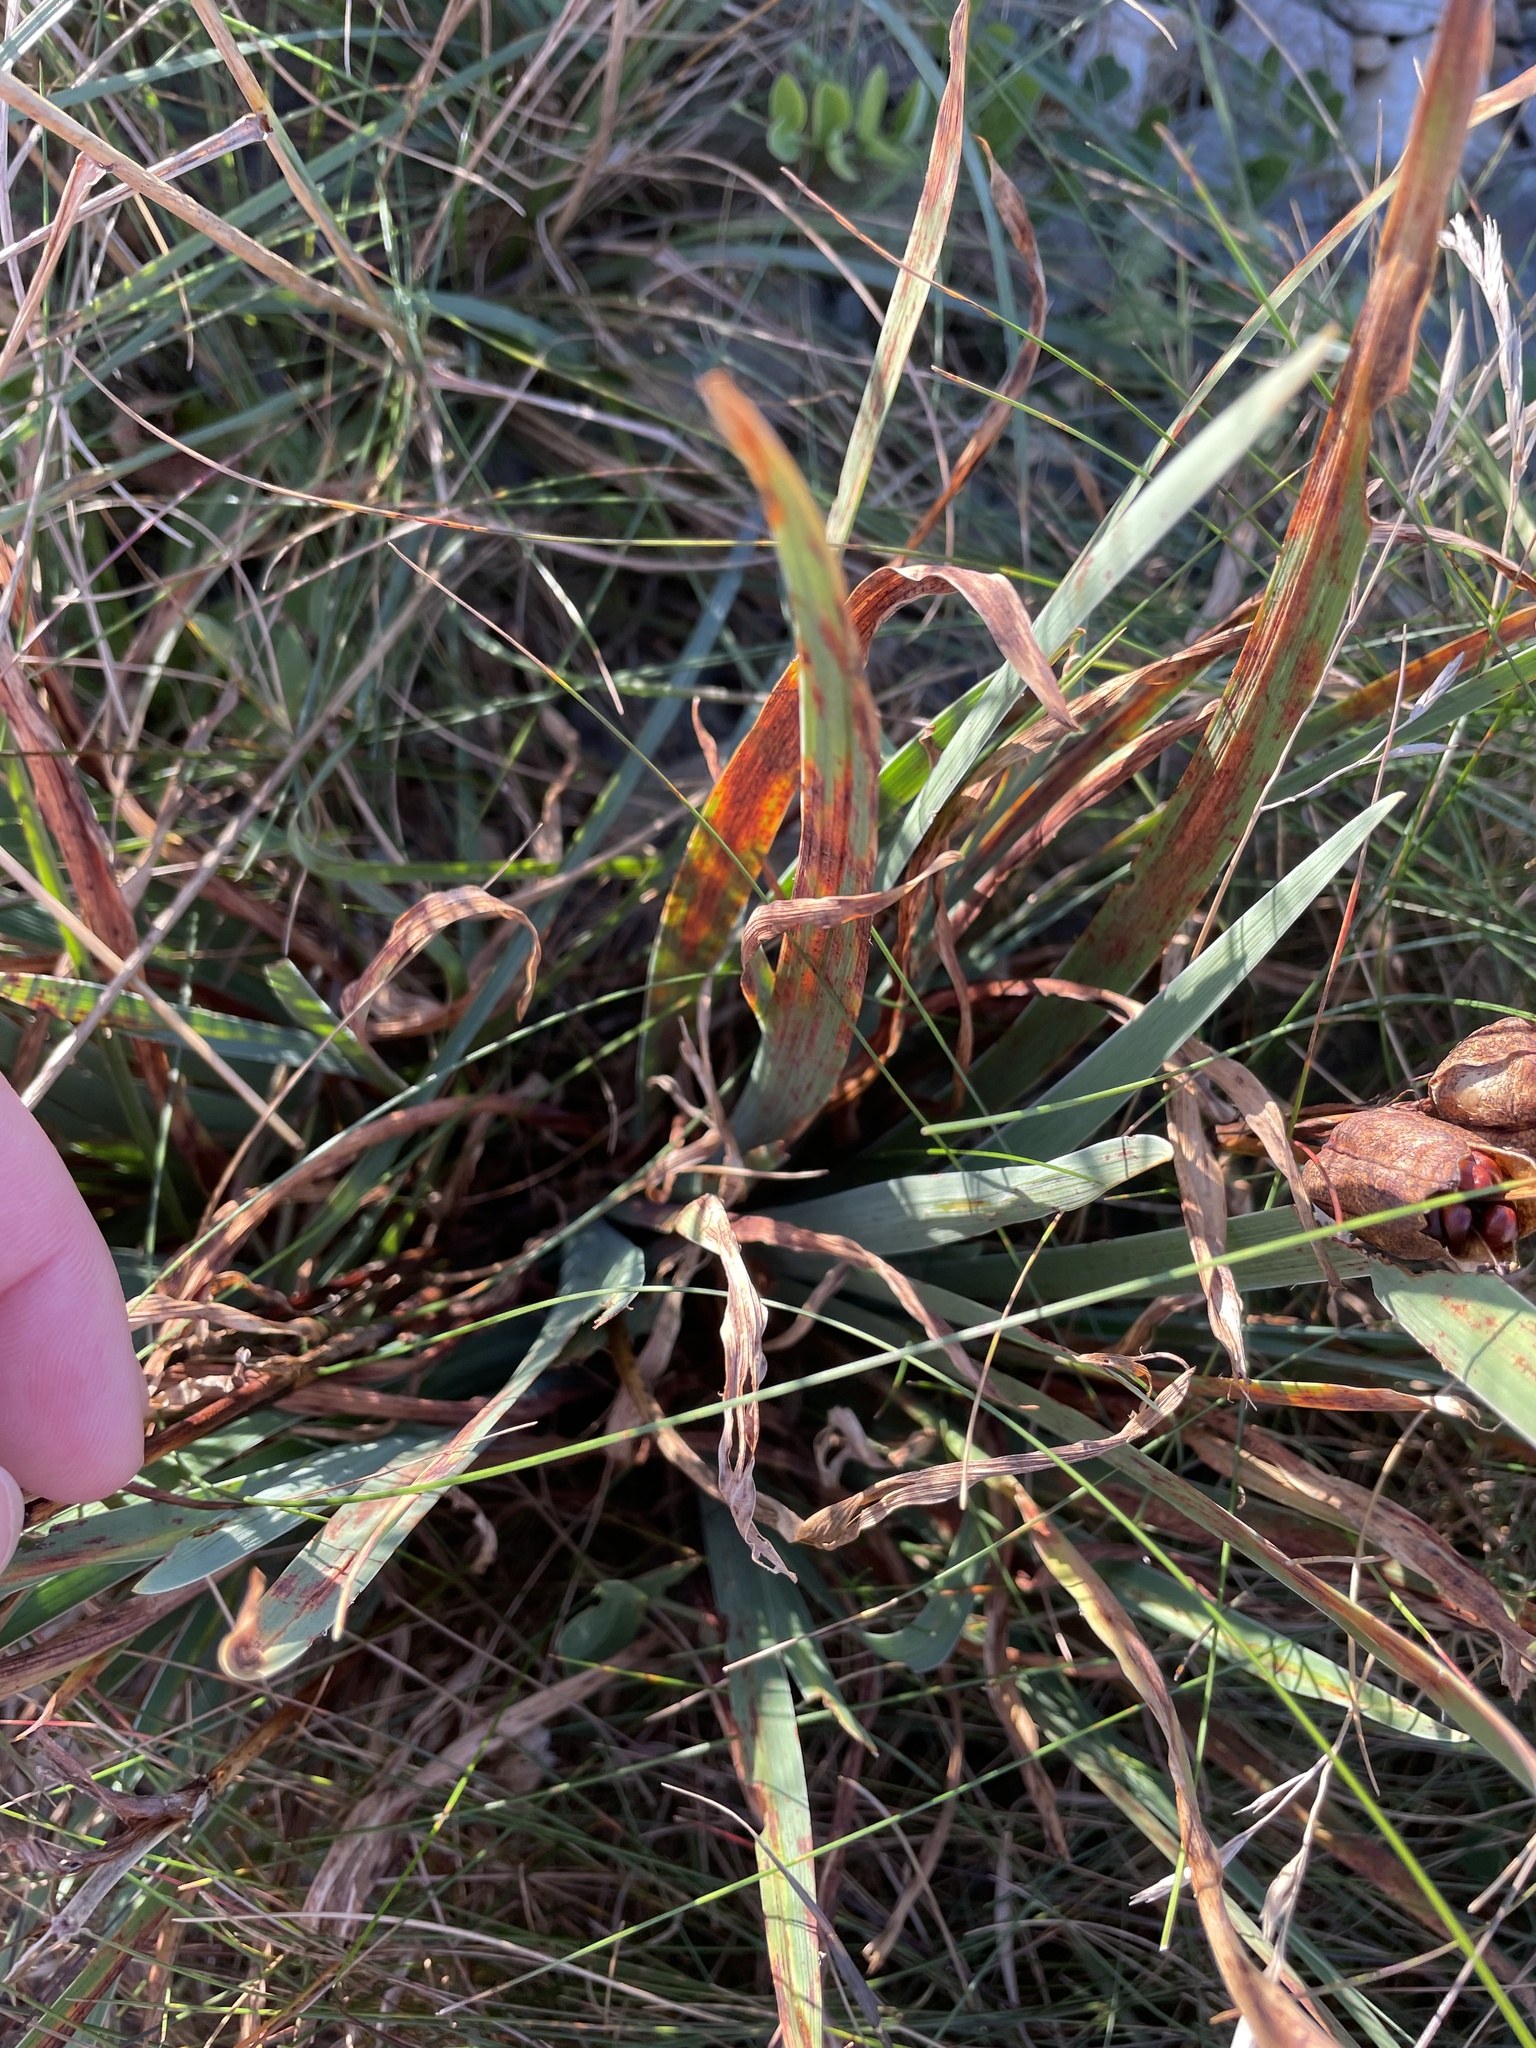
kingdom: Plantae
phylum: Tracheophyta
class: Liliopsida
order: Asparagales
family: Iridaceae
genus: Iris
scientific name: Iris hookeri
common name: Canada beach-head iris
